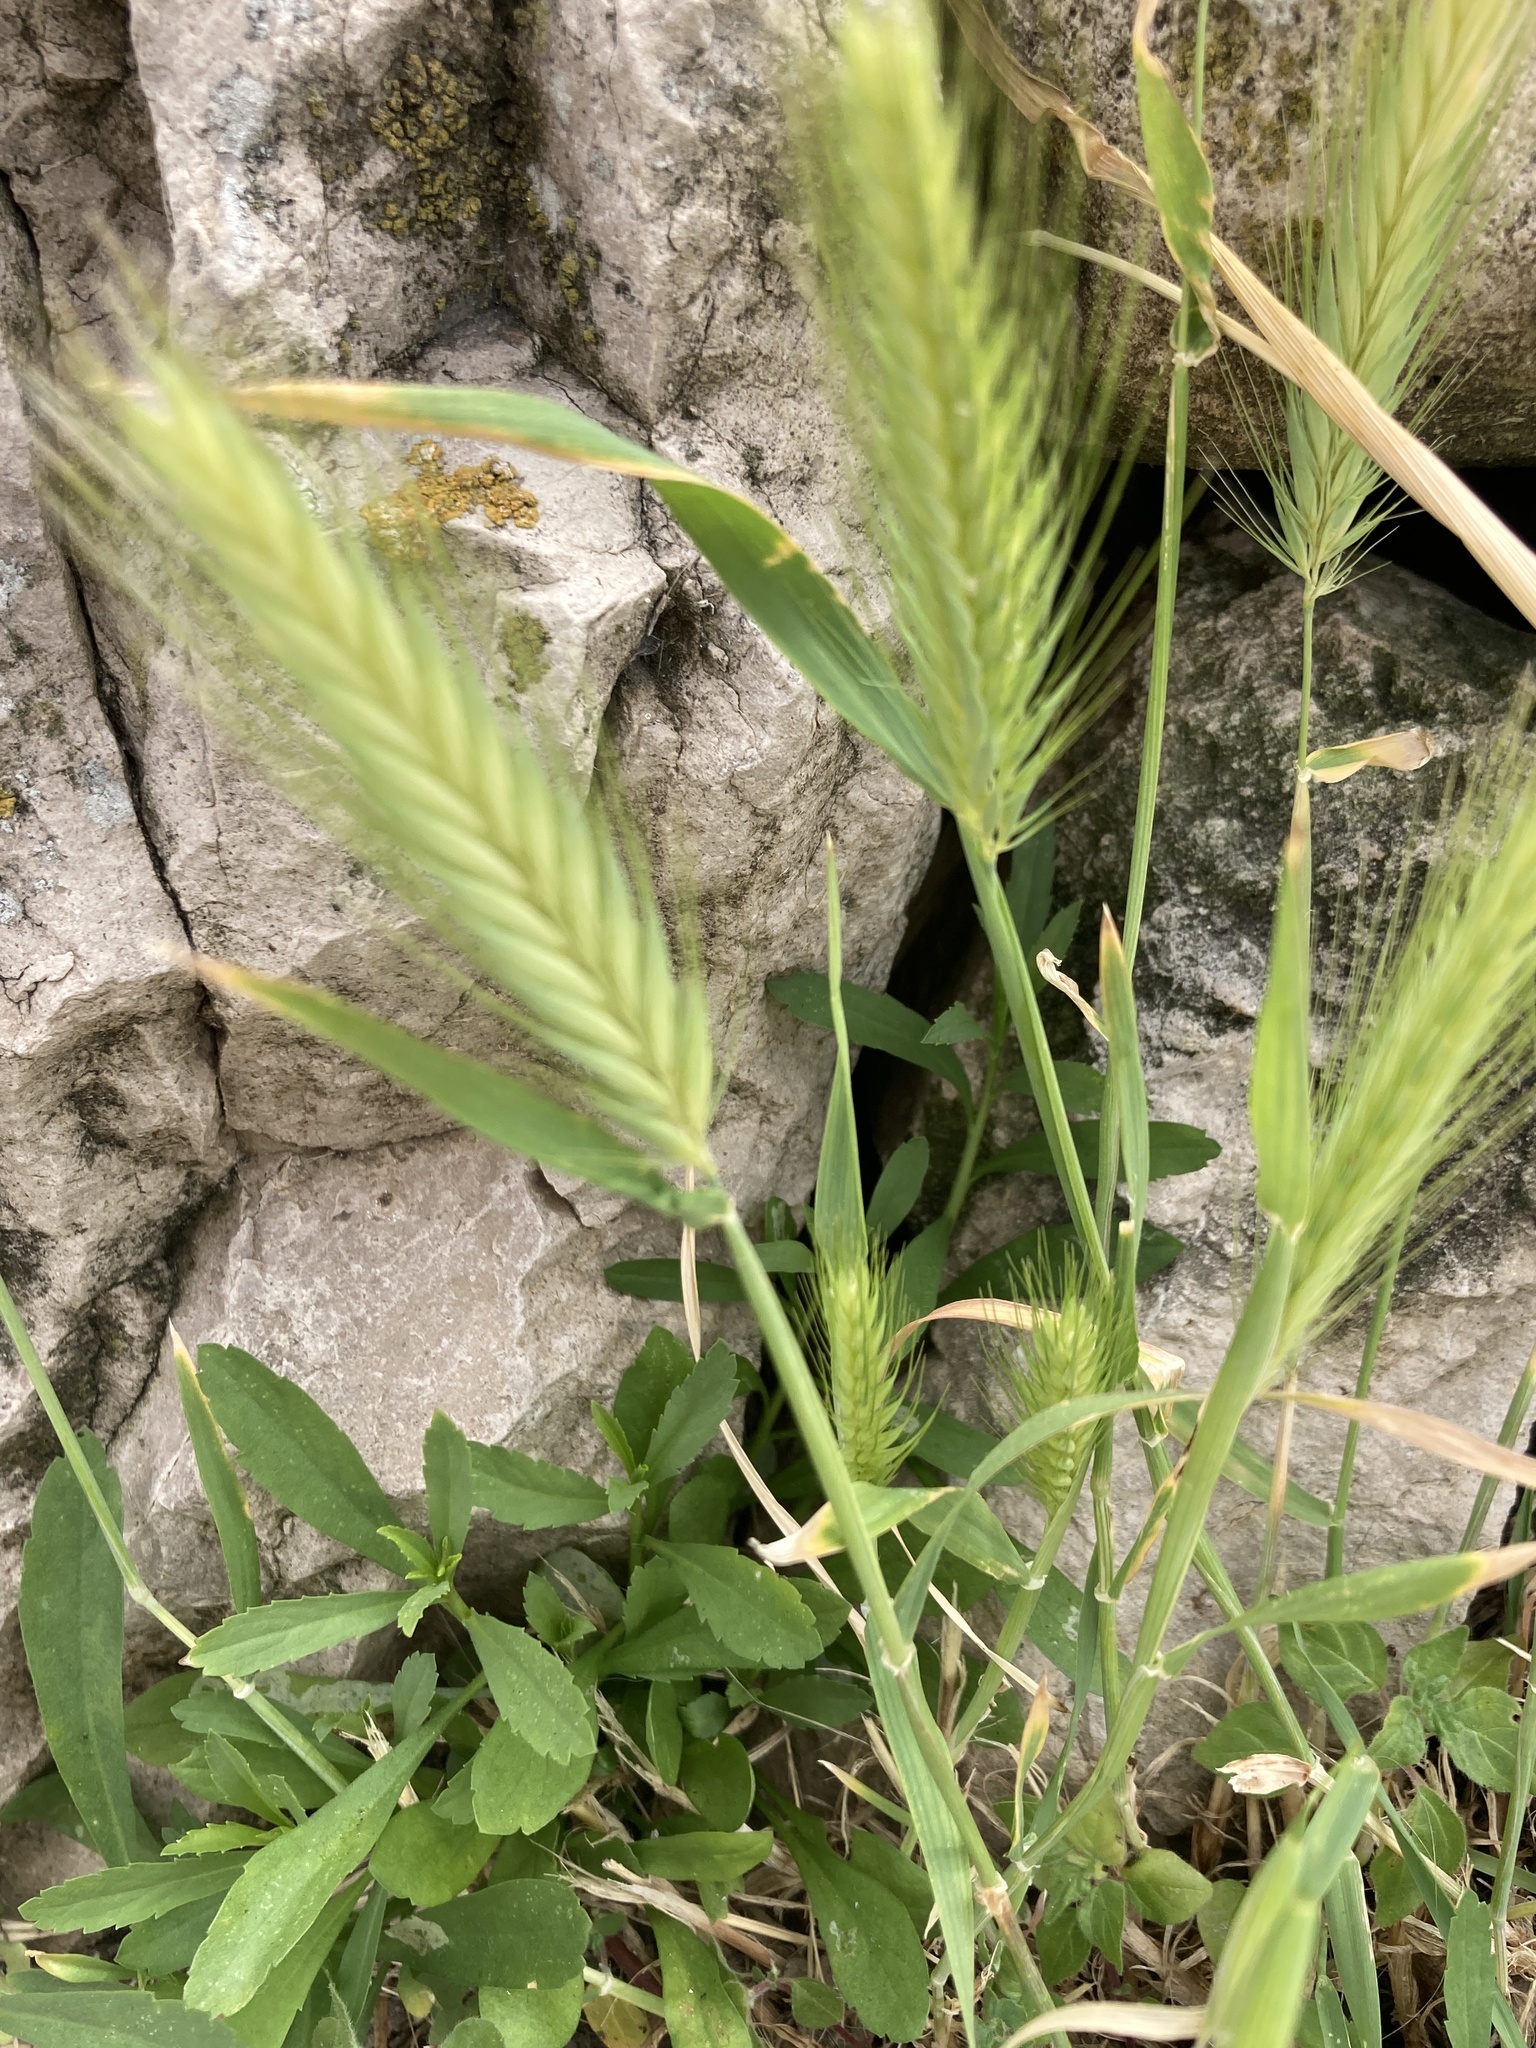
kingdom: Plantae
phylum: Tracheophyta
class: Liliopsida
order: Poales
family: Poaceae
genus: Hordeum
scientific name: Hordeum murinum
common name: Wall barley
